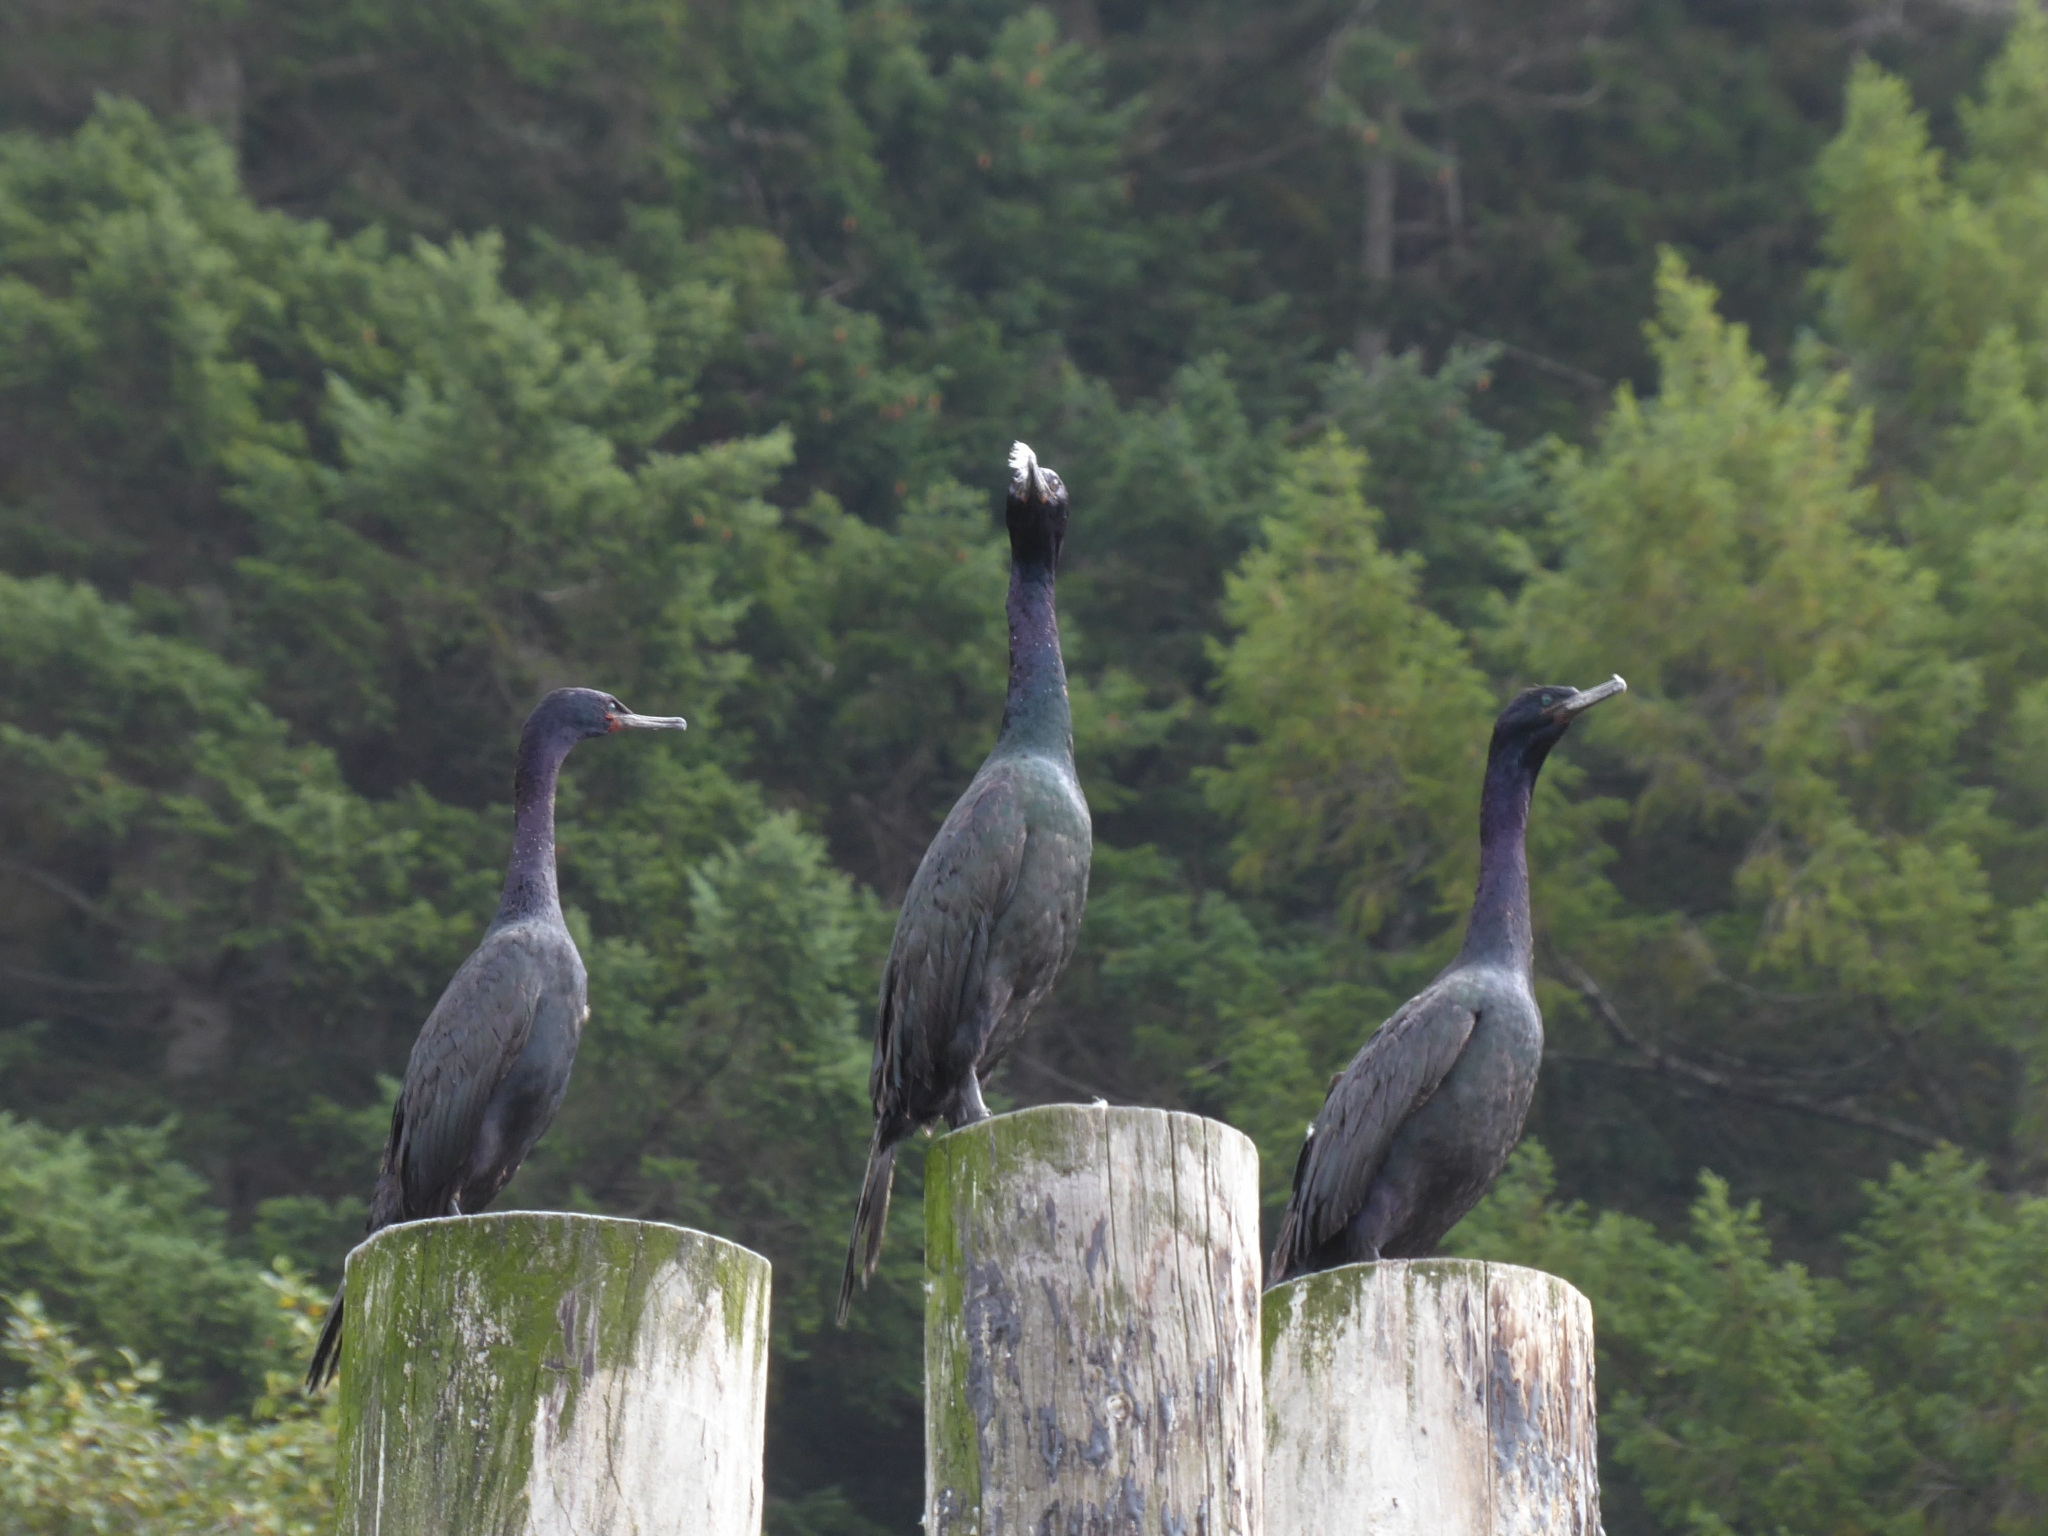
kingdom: Animalia
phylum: Chordata
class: Aves
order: Suliformes
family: Phalacrocoracidae
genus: Phalacrocorax
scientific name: Phalacrocorax pelagicus
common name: Pelagic cormorant
